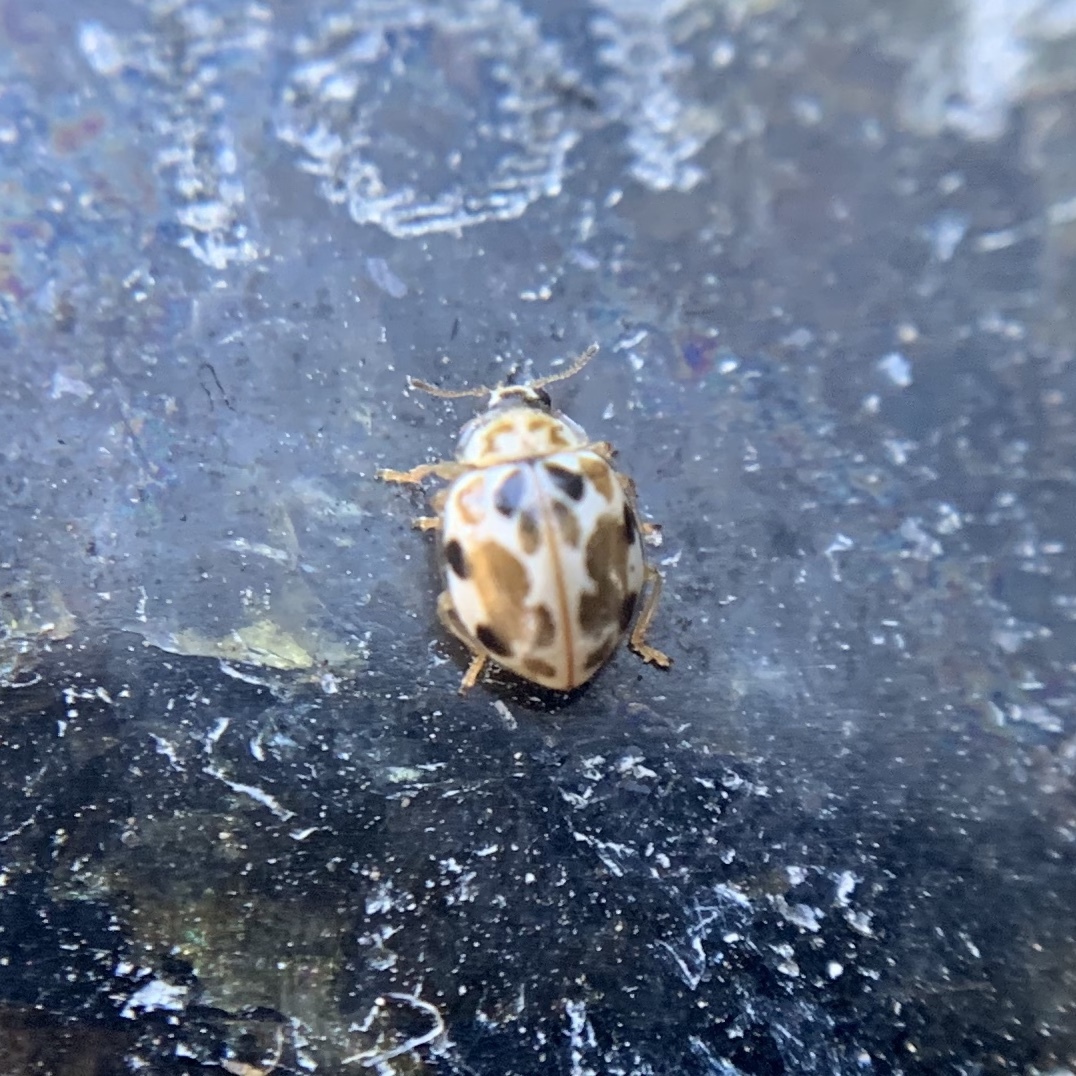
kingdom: Animalia
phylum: Arthropoda
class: Insecta
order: Coleoptera
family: Coccinellidae
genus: Psyllobora
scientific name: Psyllobora vigintimaculata
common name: Ladybird beetle
